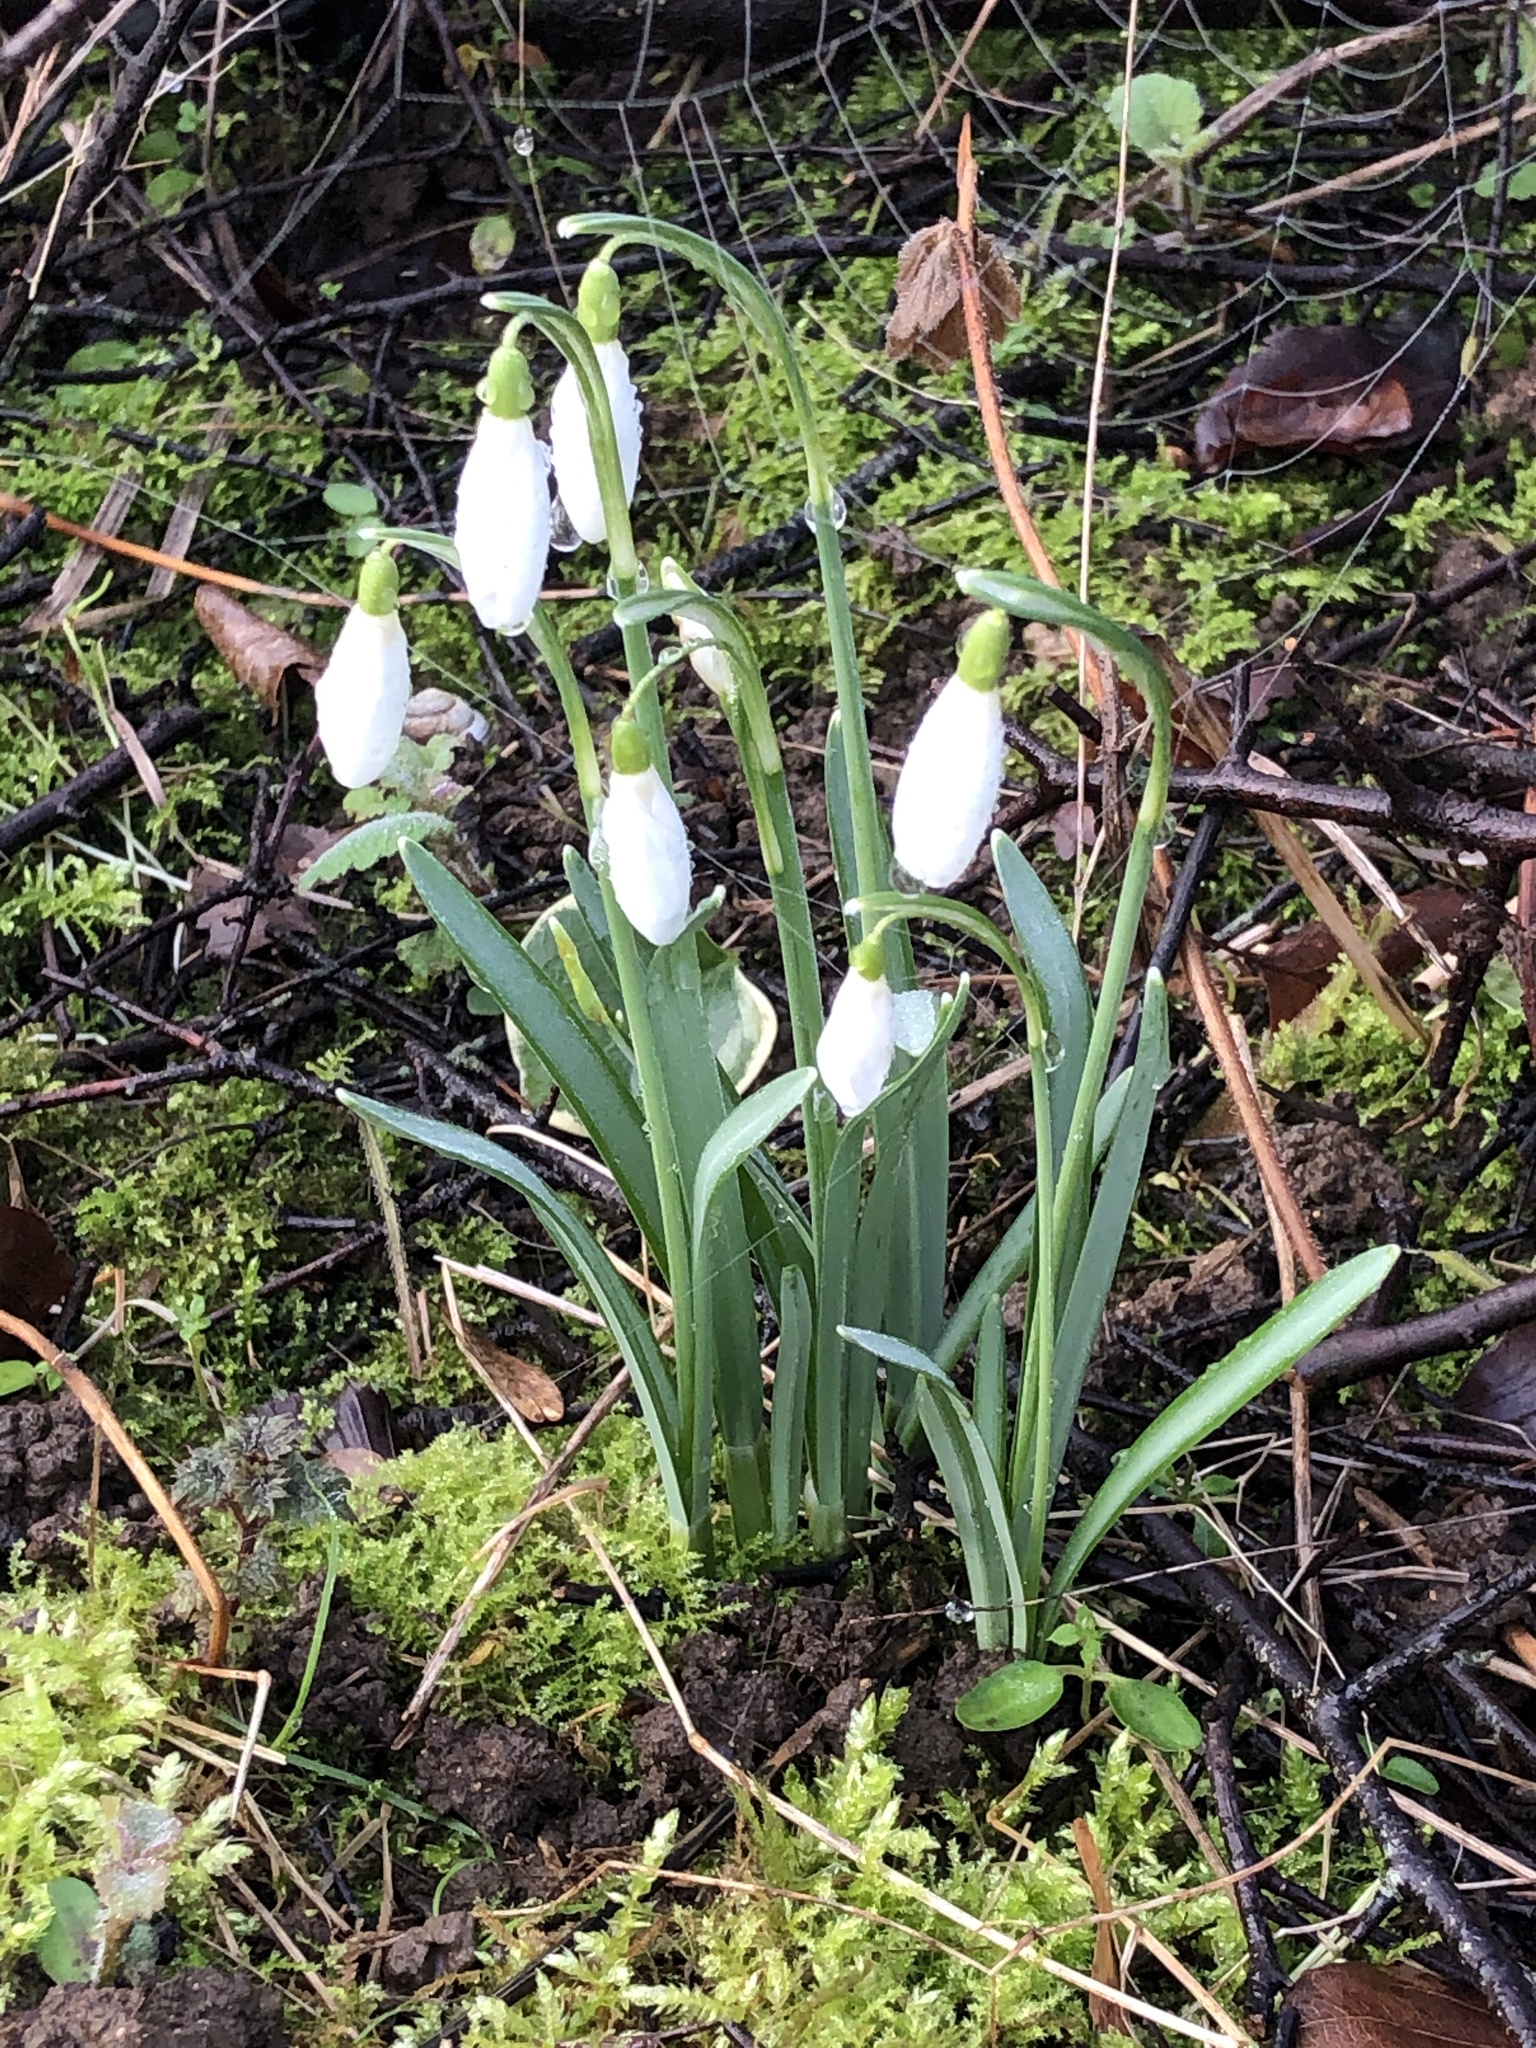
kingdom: Plantae
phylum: Tracheophyta
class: Liliopsida
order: Asparagales
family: Amaryllidaceae
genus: Galanthus
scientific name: Galanthus nivalis
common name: Snowdrop
